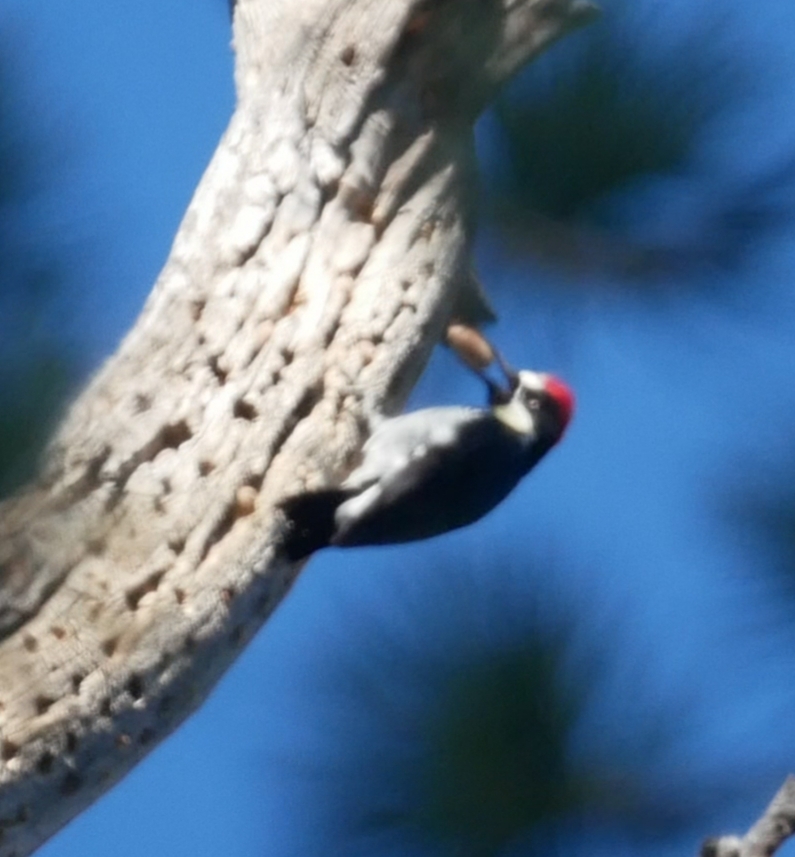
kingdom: Animalia
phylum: Chordata
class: Aves
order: Piciformes
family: Picidae
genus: Melanerpes
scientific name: Melanerpes formicivorus
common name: Acorn woodpecker
